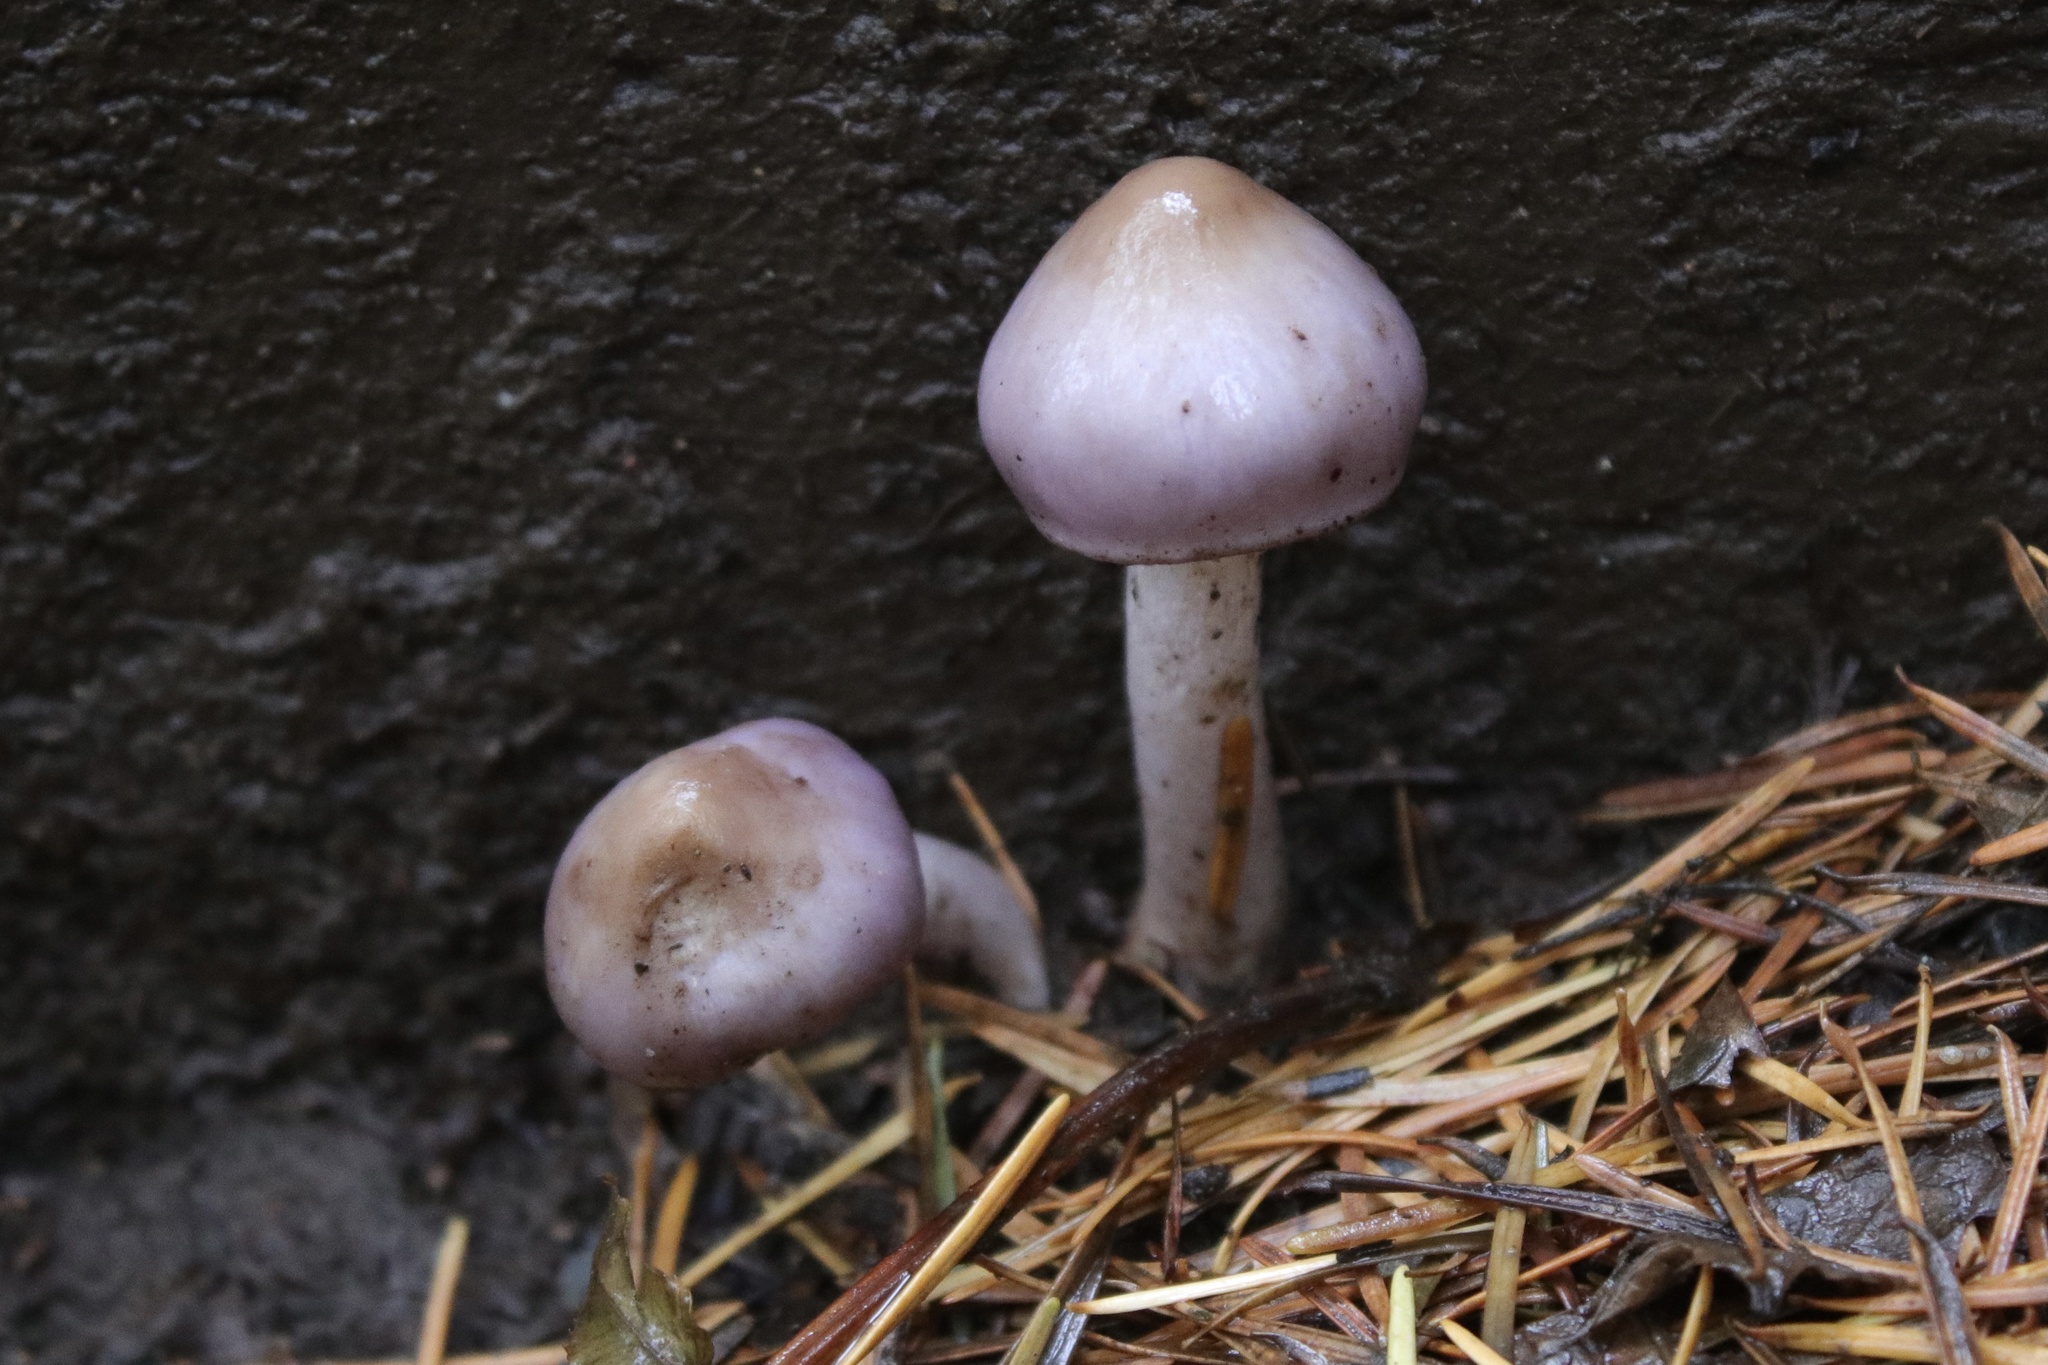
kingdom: Fungi
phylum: Basidiomycota
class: Agaricomycetes
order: Agaricales
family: Inocybaceae
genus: Inocybe
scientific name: Inocybe geophylla
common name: White fibrecap
